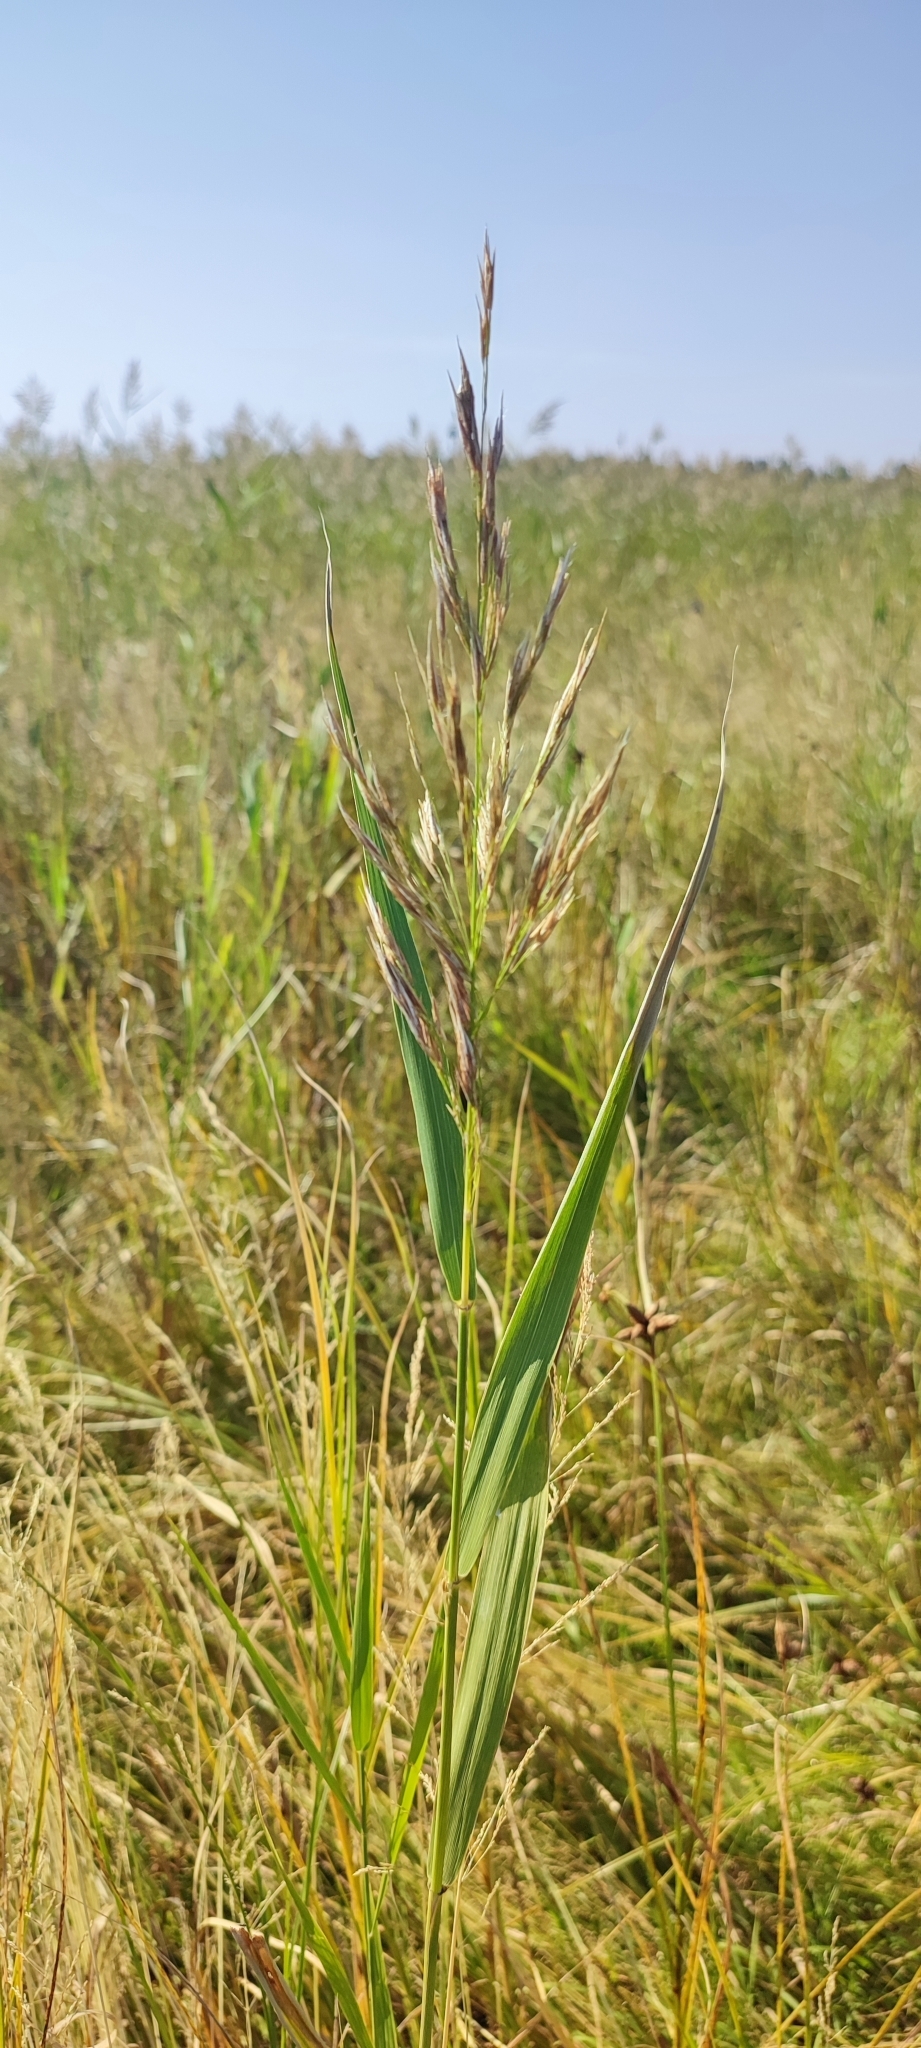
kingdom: Plantae
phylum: Tracheophyta
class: Liliopsida
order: Poales
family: Poaceae
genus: Phragmites
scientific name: Phragmites australis
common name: Common reed
